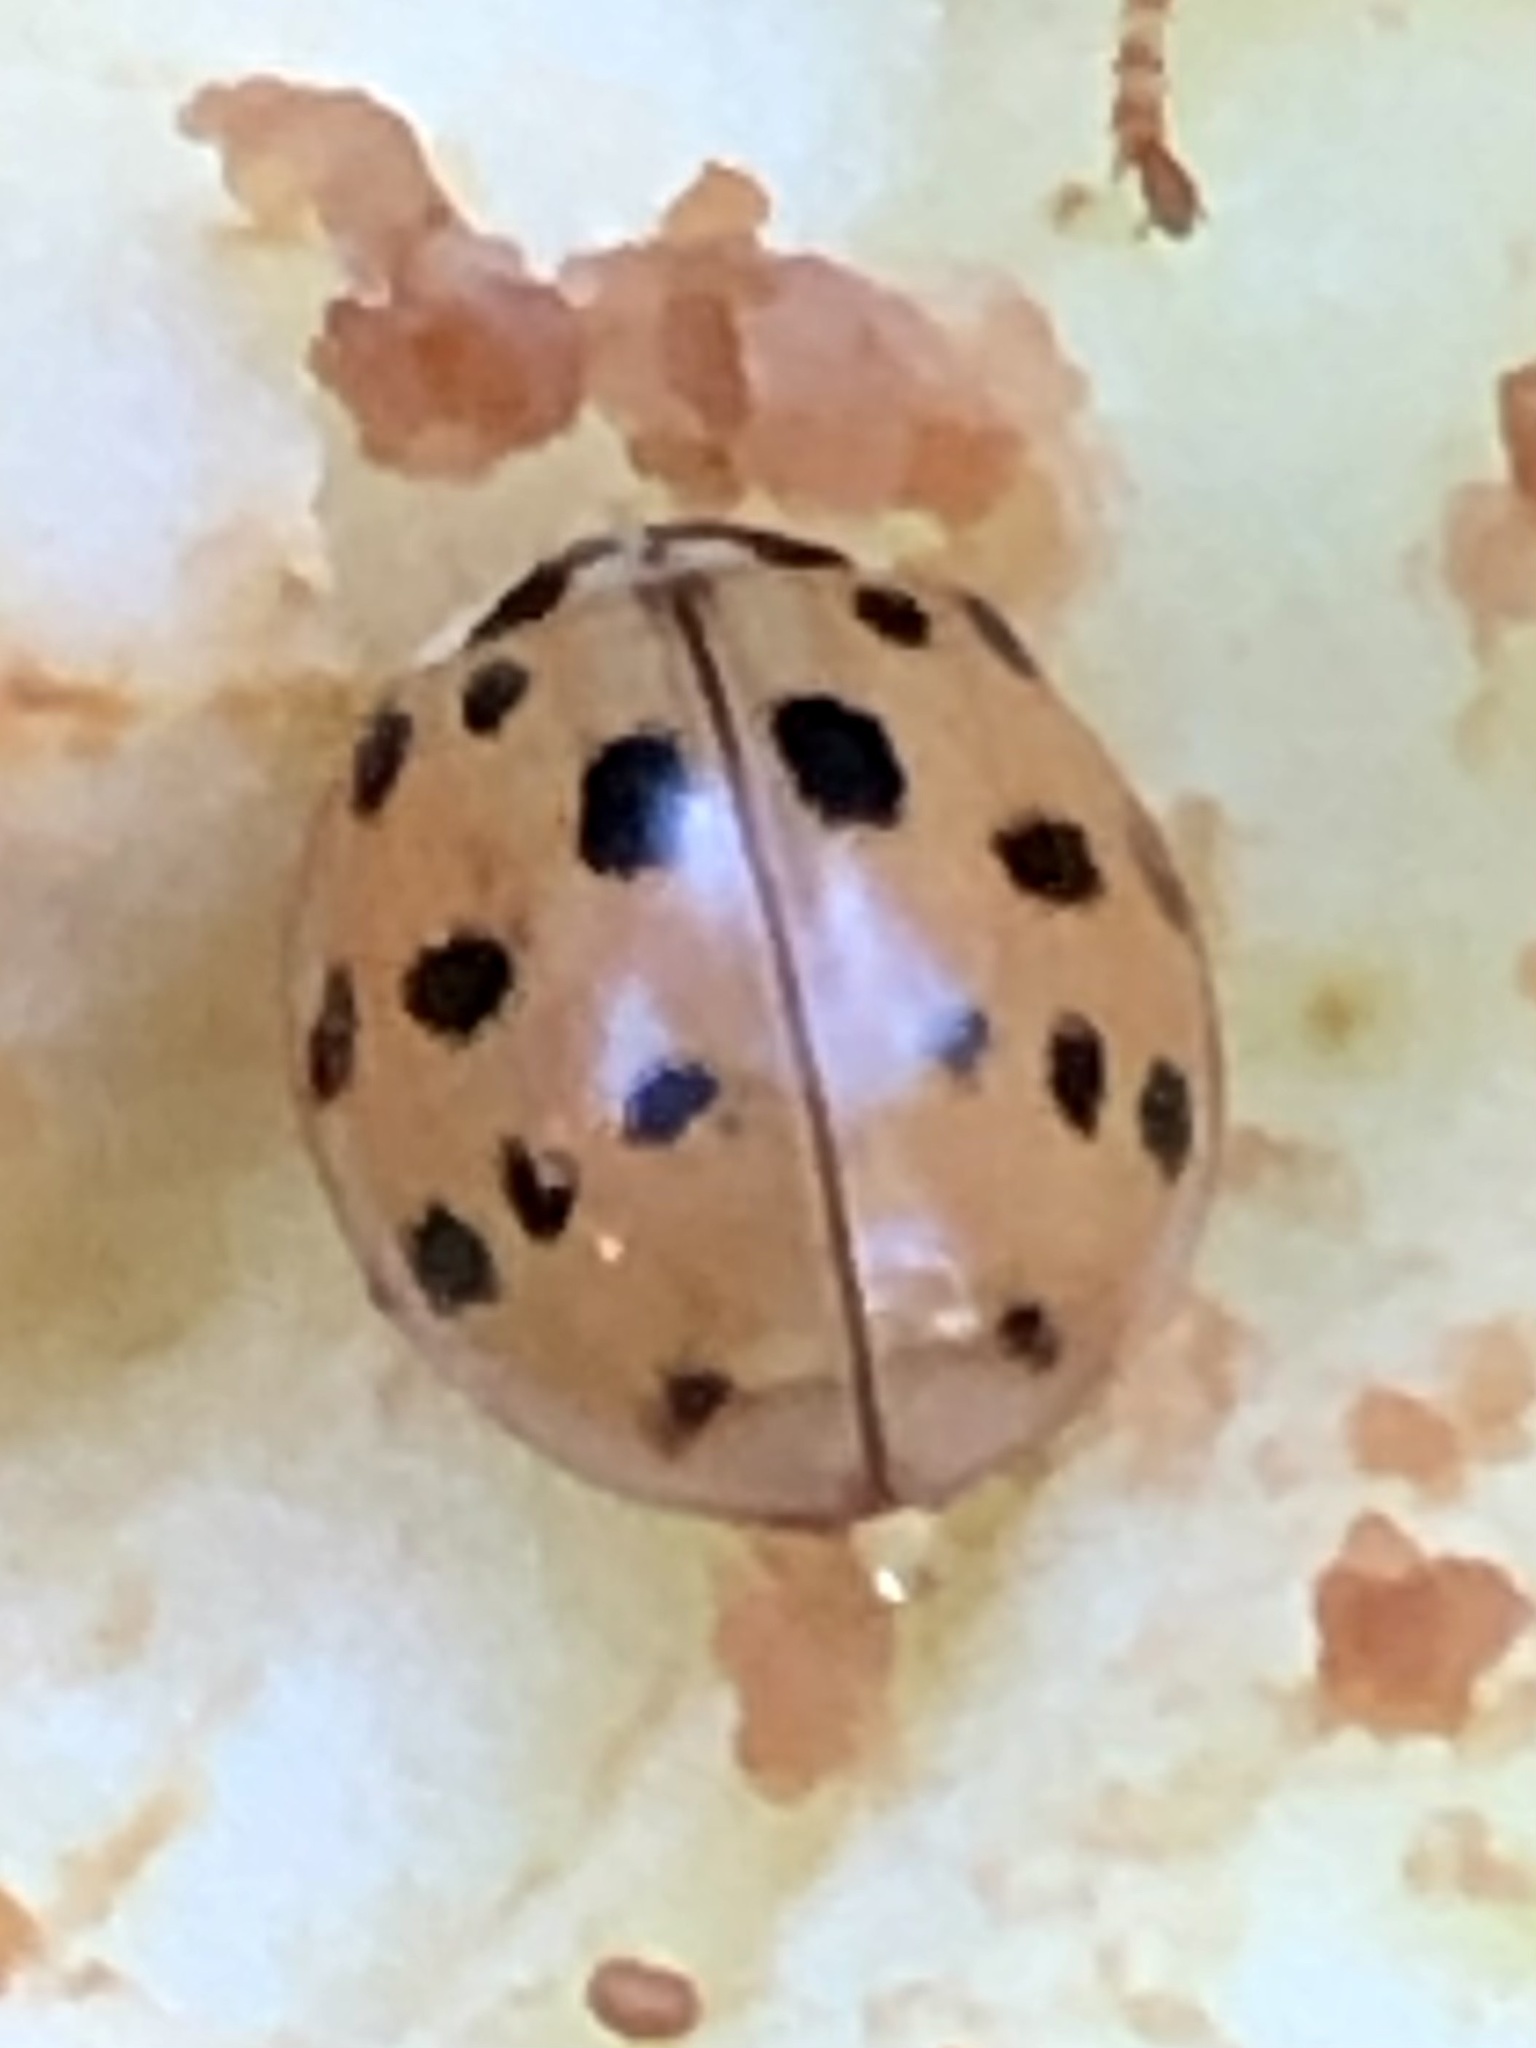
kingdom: Animalia
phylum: Arthropoda
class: Insecta
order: Coleoptera
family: Coccinellidae
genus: Harmonia
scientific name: Harmonia axyridis
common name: Harlequin ladybird
